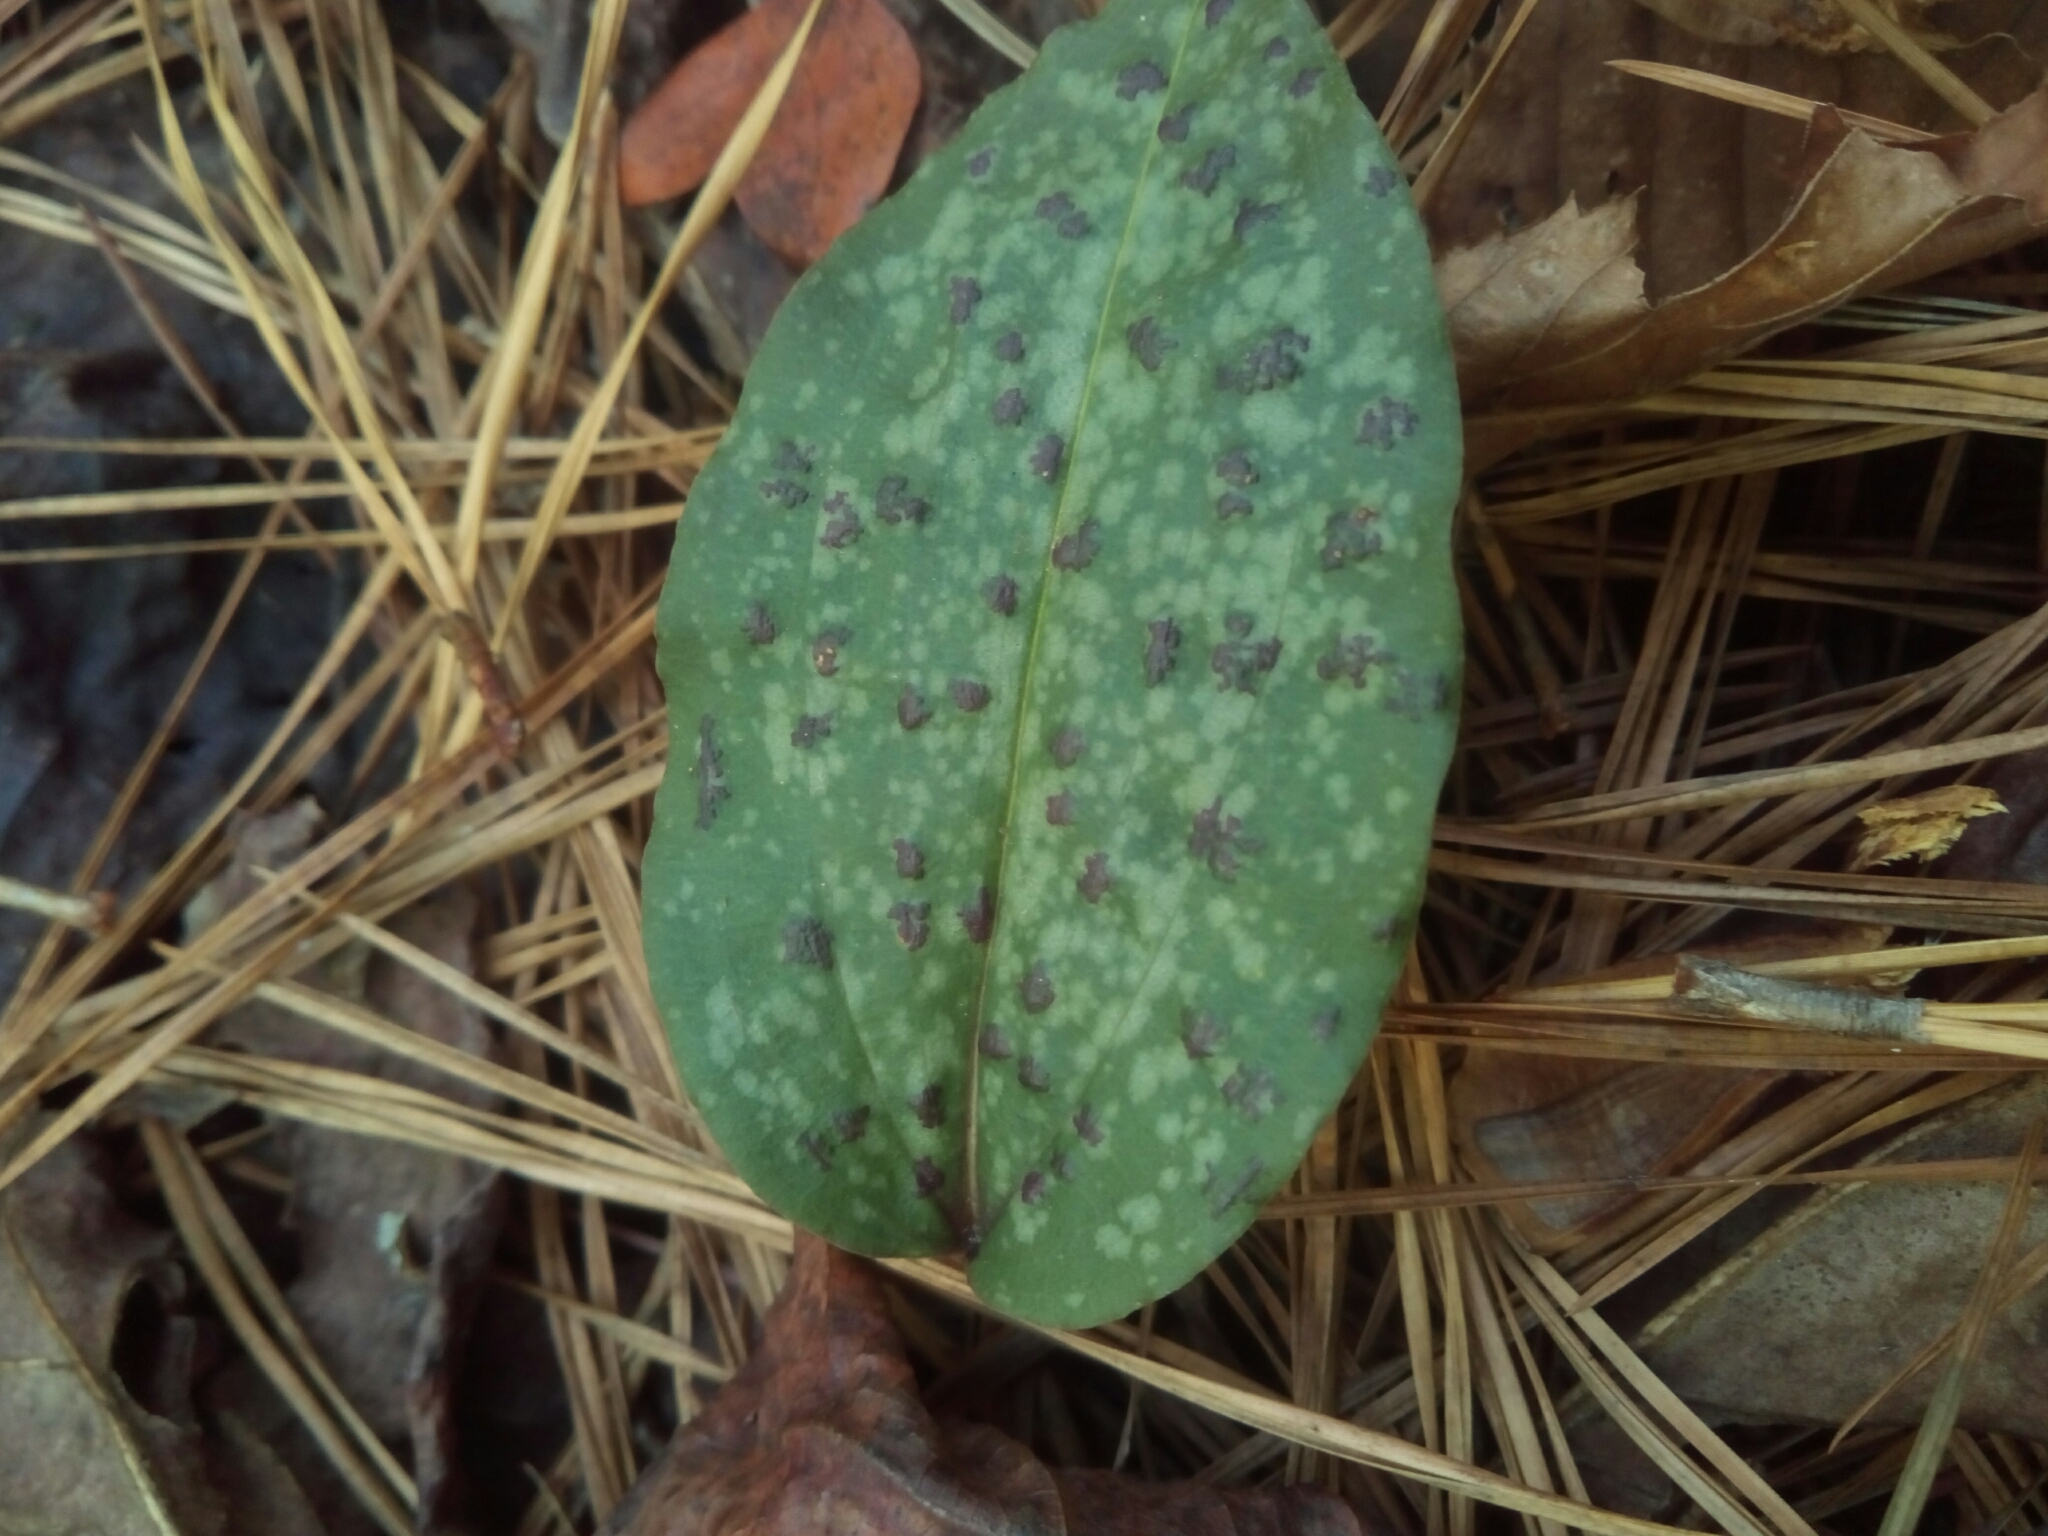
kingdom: Plantae
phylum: Tracheophyta
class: Liliopsida
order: Asparagales
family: Orchidaceae
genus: Tipularia
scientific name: Tipularia discolor
